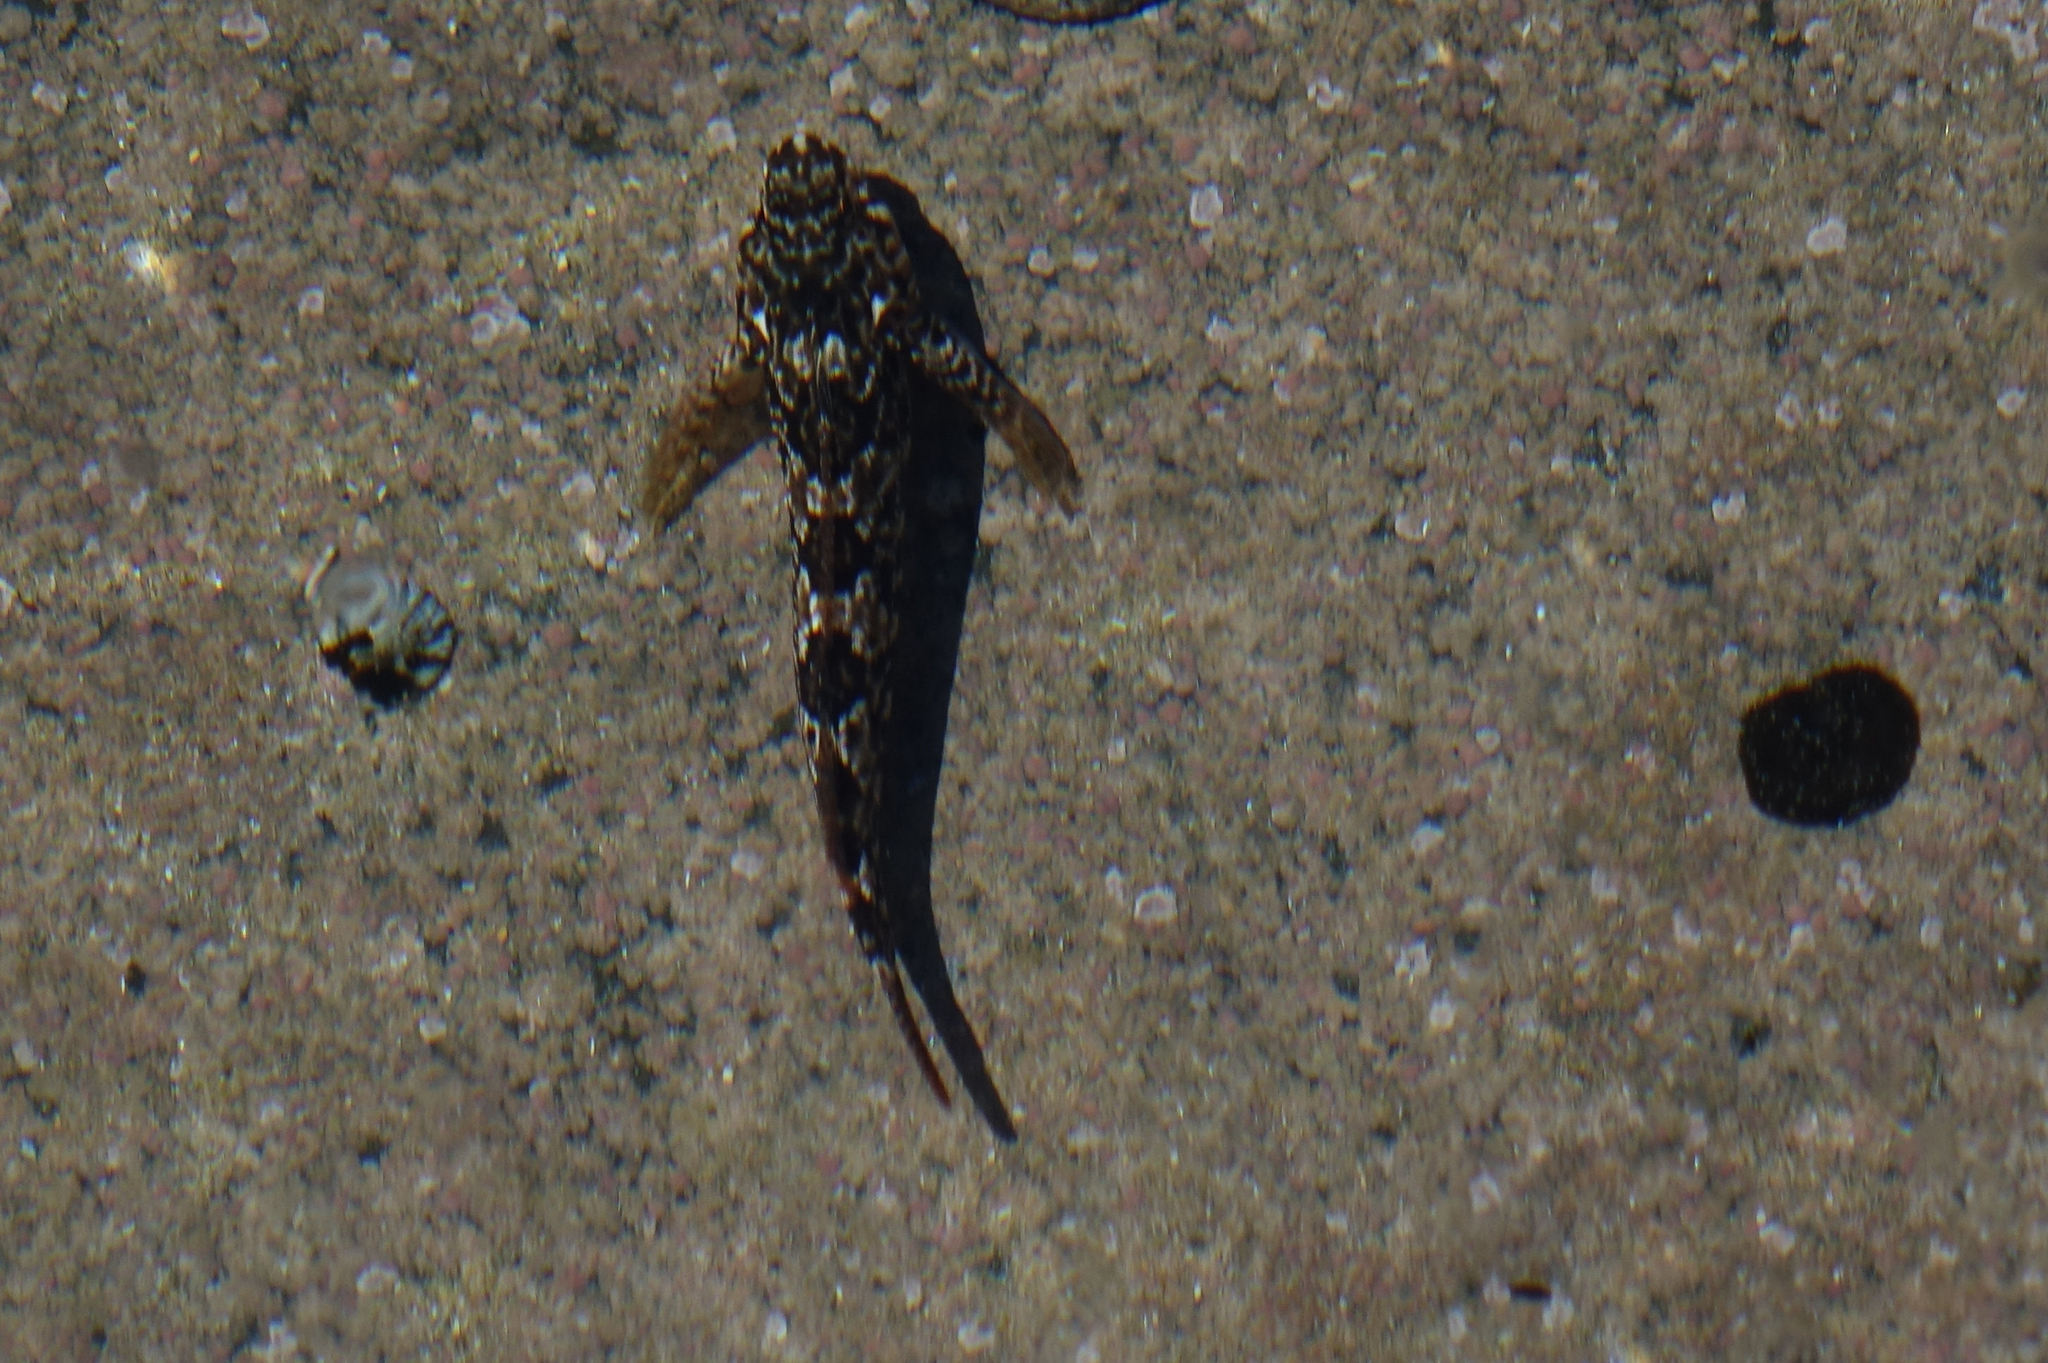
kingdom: Animalia
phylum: Chordata
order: Perciformes
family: Tripterygiidae
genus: Bellapiscis
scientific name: Bellapiscis medius
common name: Twister
